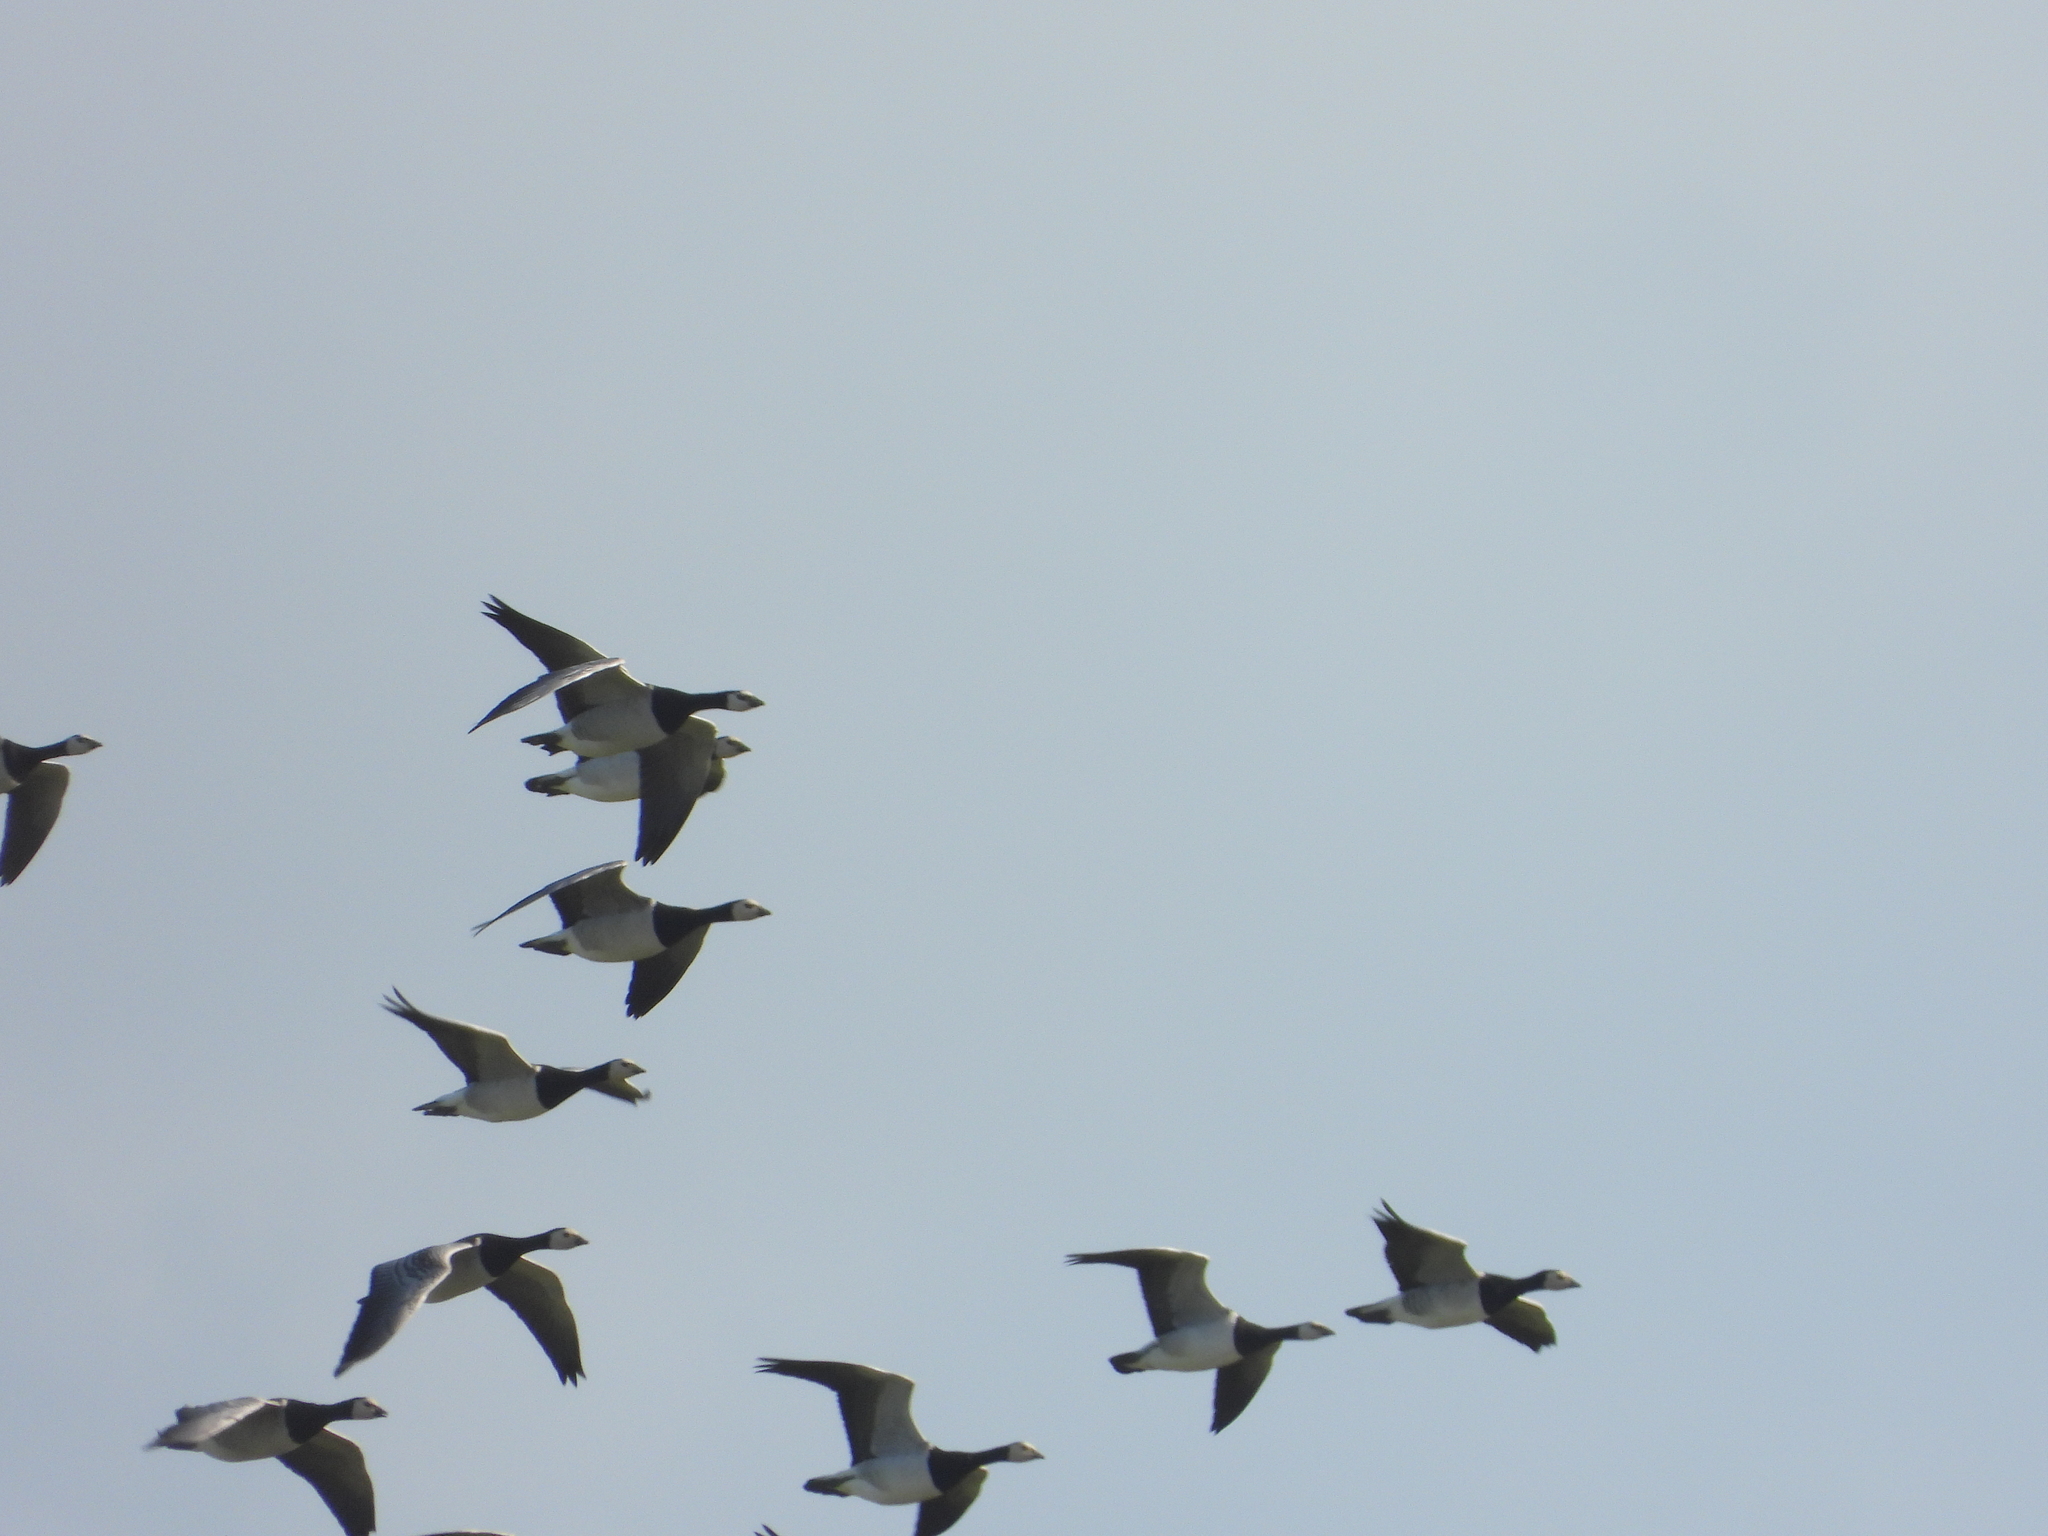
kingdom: Animalia
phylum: Chordata
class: Aves
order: Anseriformes
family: Anatidae
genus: Branta
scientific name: Branta leucopsis
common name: Barnacle goose
